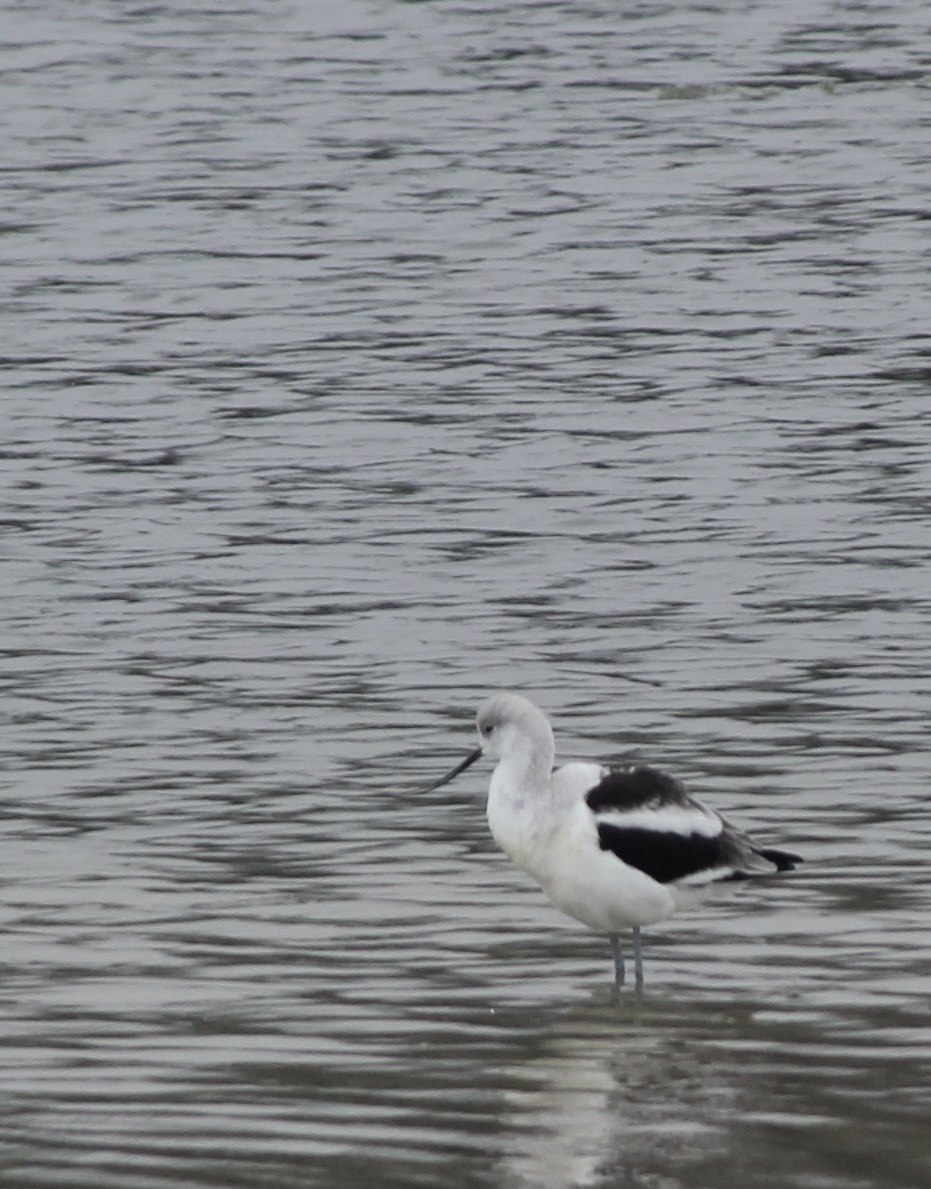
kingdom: Animalia
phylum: Chordata
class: Aves
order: Charadriiformes
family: Recurvirostridae
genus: Recurvirostra
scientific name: Recurvirostra americana
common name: American avocet
